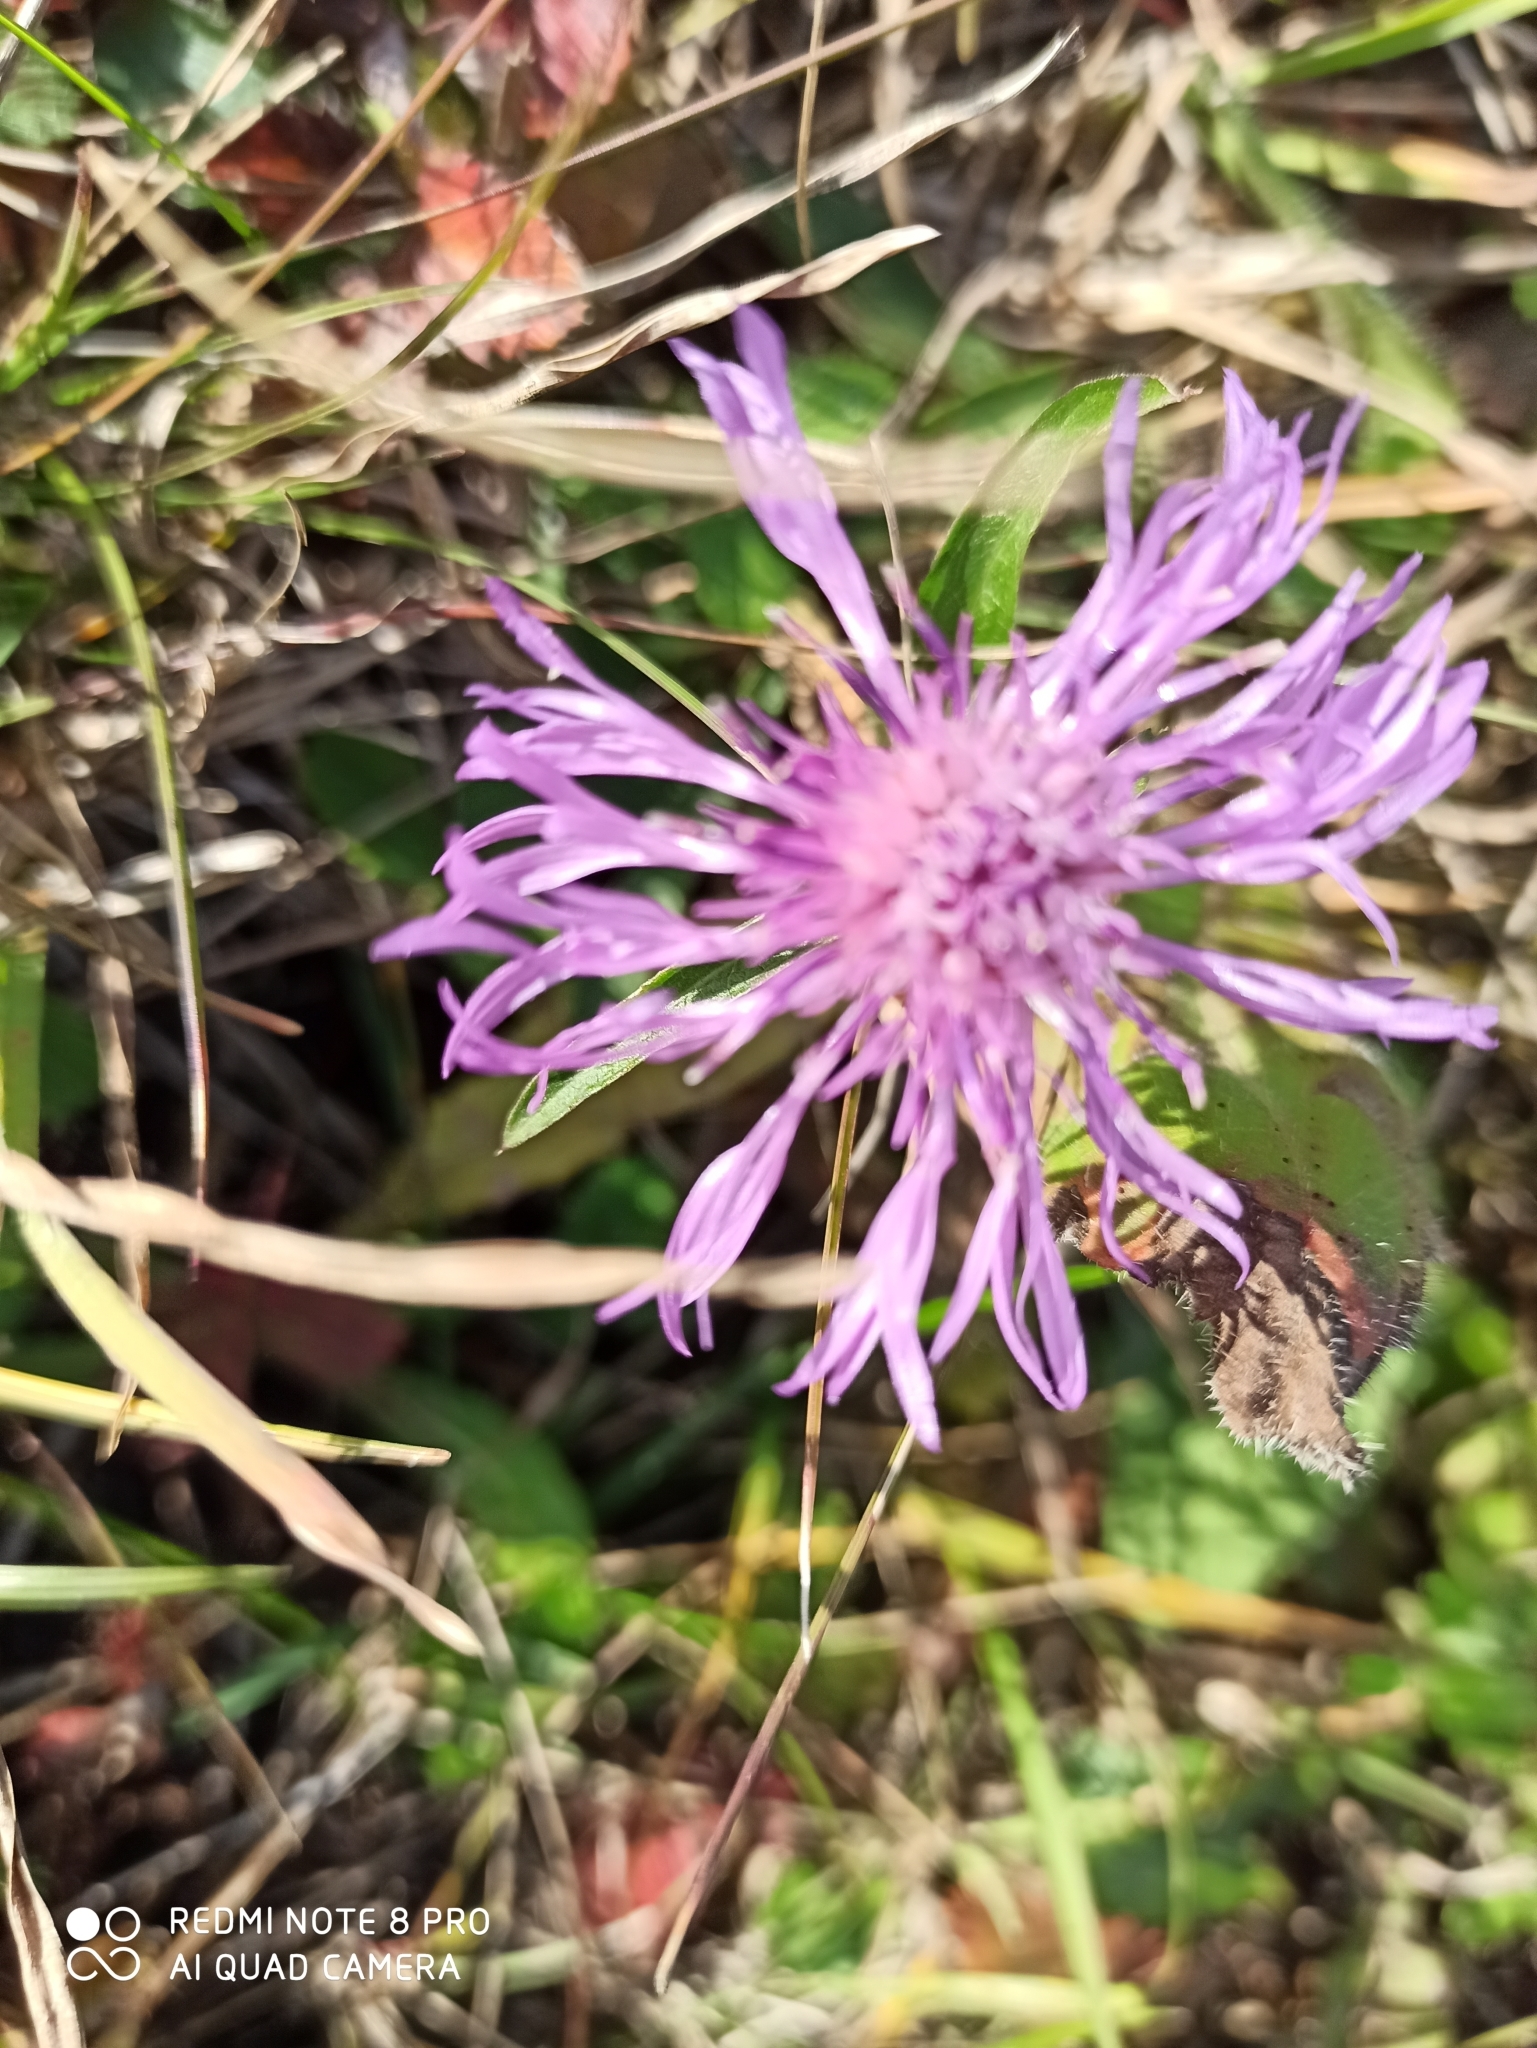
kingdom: Plantae
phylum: Tracheophyta
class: Magnoliopsida
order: Asterales
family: Asteraceae
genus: Centaurea
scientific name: Centaurea jacea
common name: Brown knapweed
